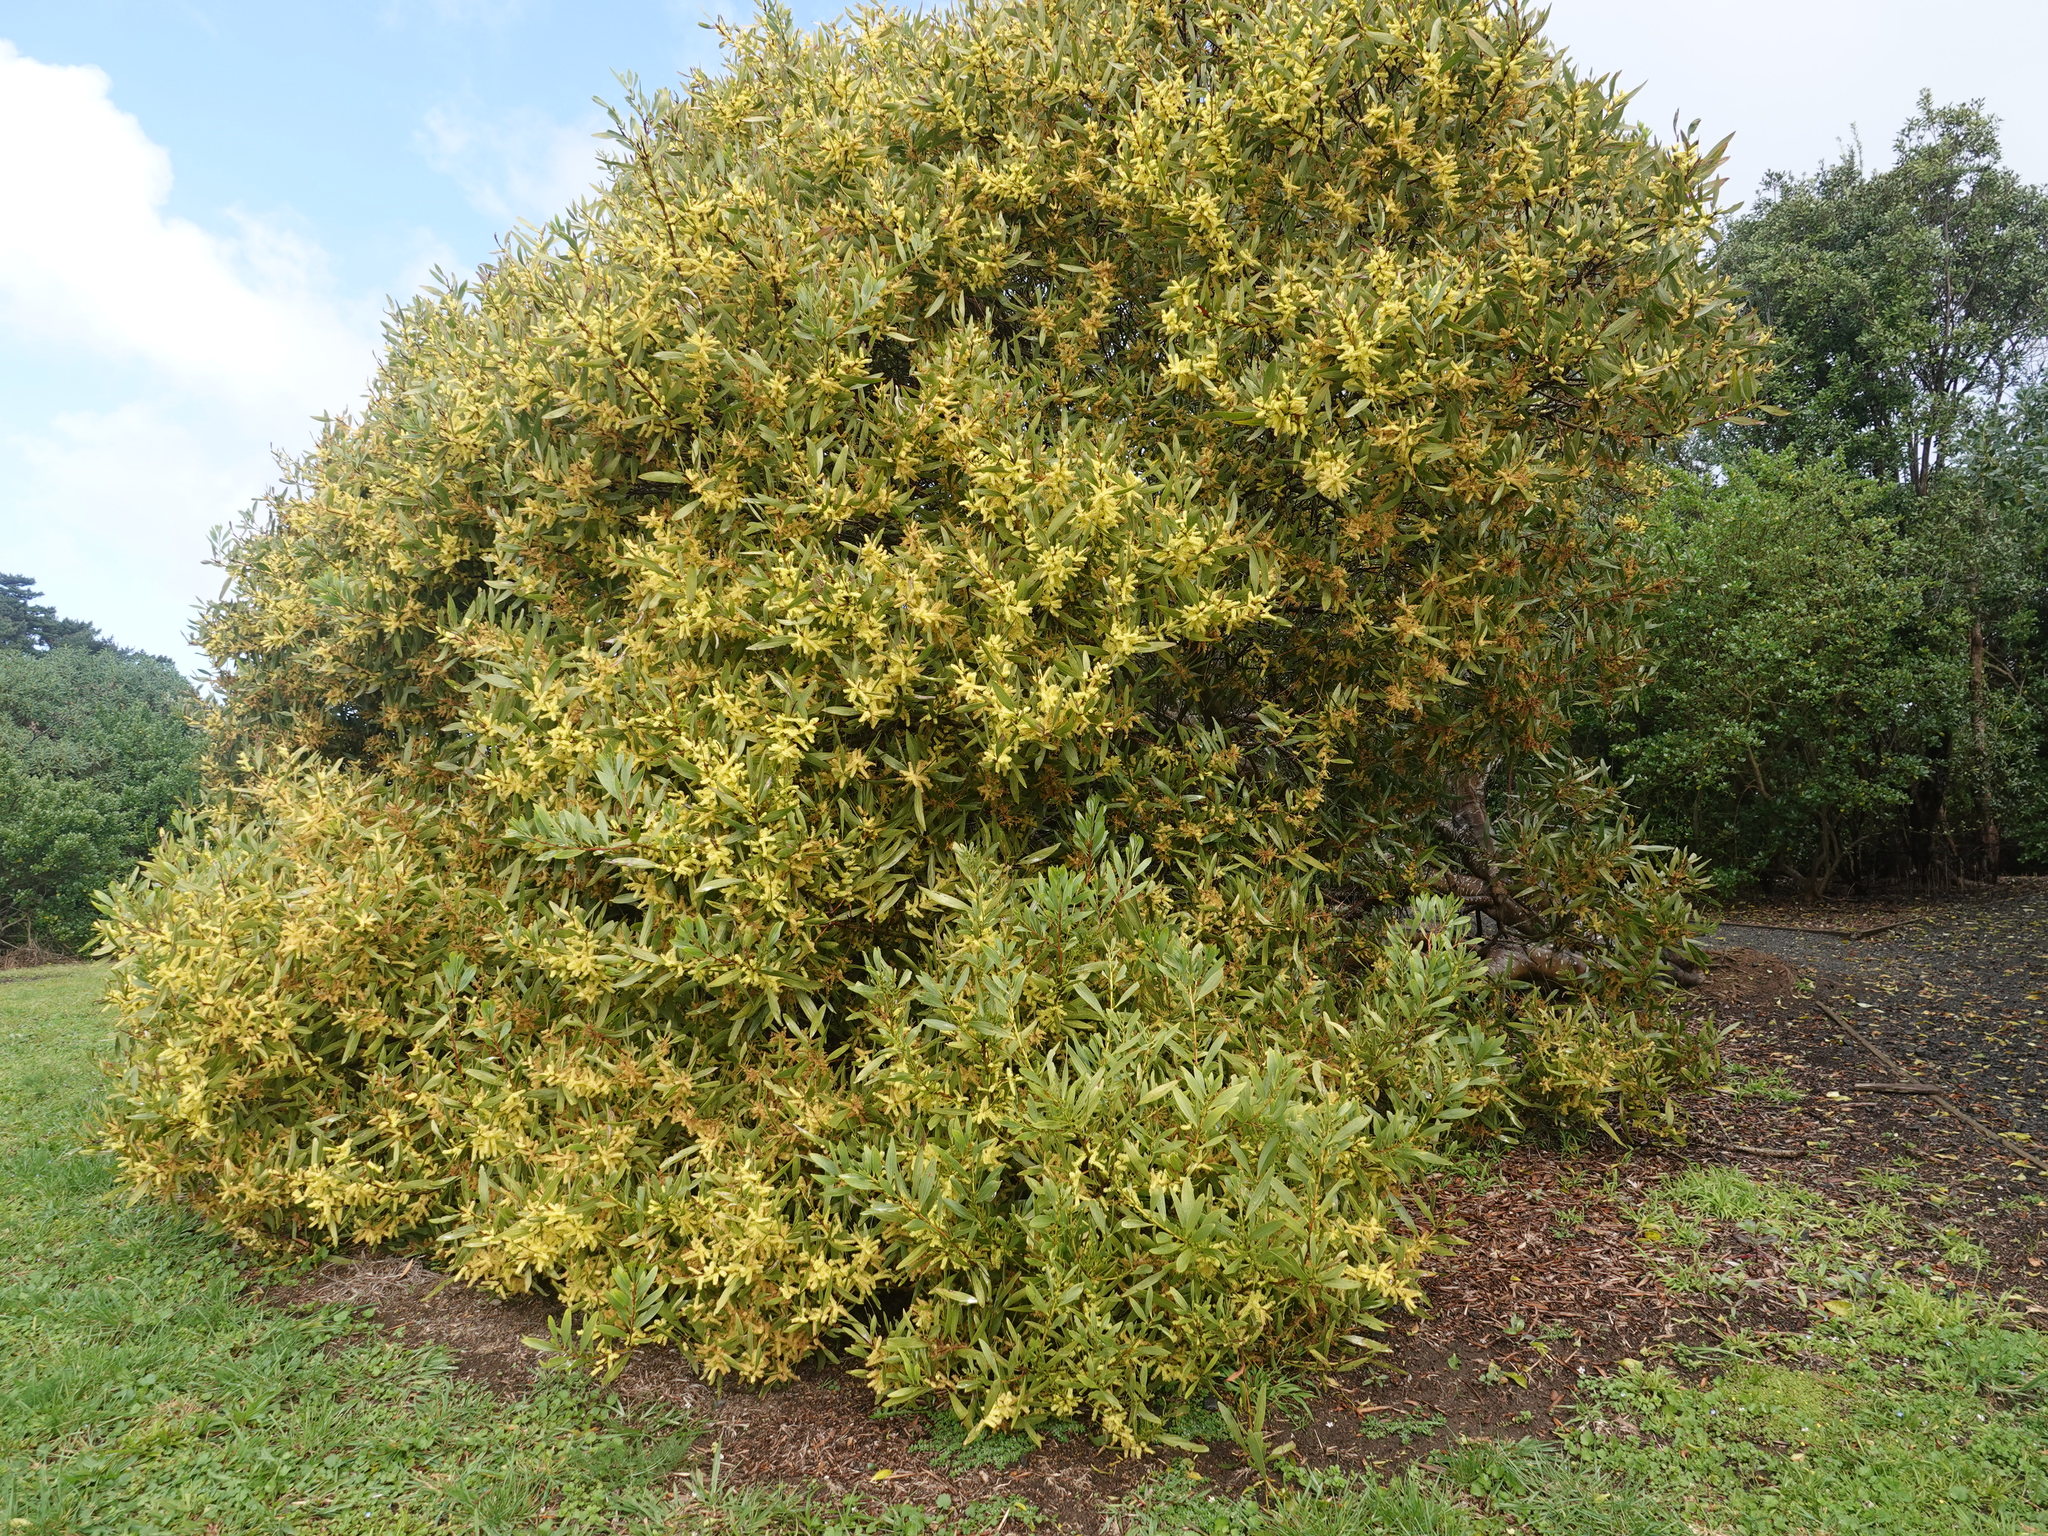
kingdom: Plantae
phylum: Tracheophyta
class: Magnoliopsida
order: Fabales
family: Fabaceae
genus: Acacia
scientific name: Acacia longifolia
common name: Sydney golden wattle
